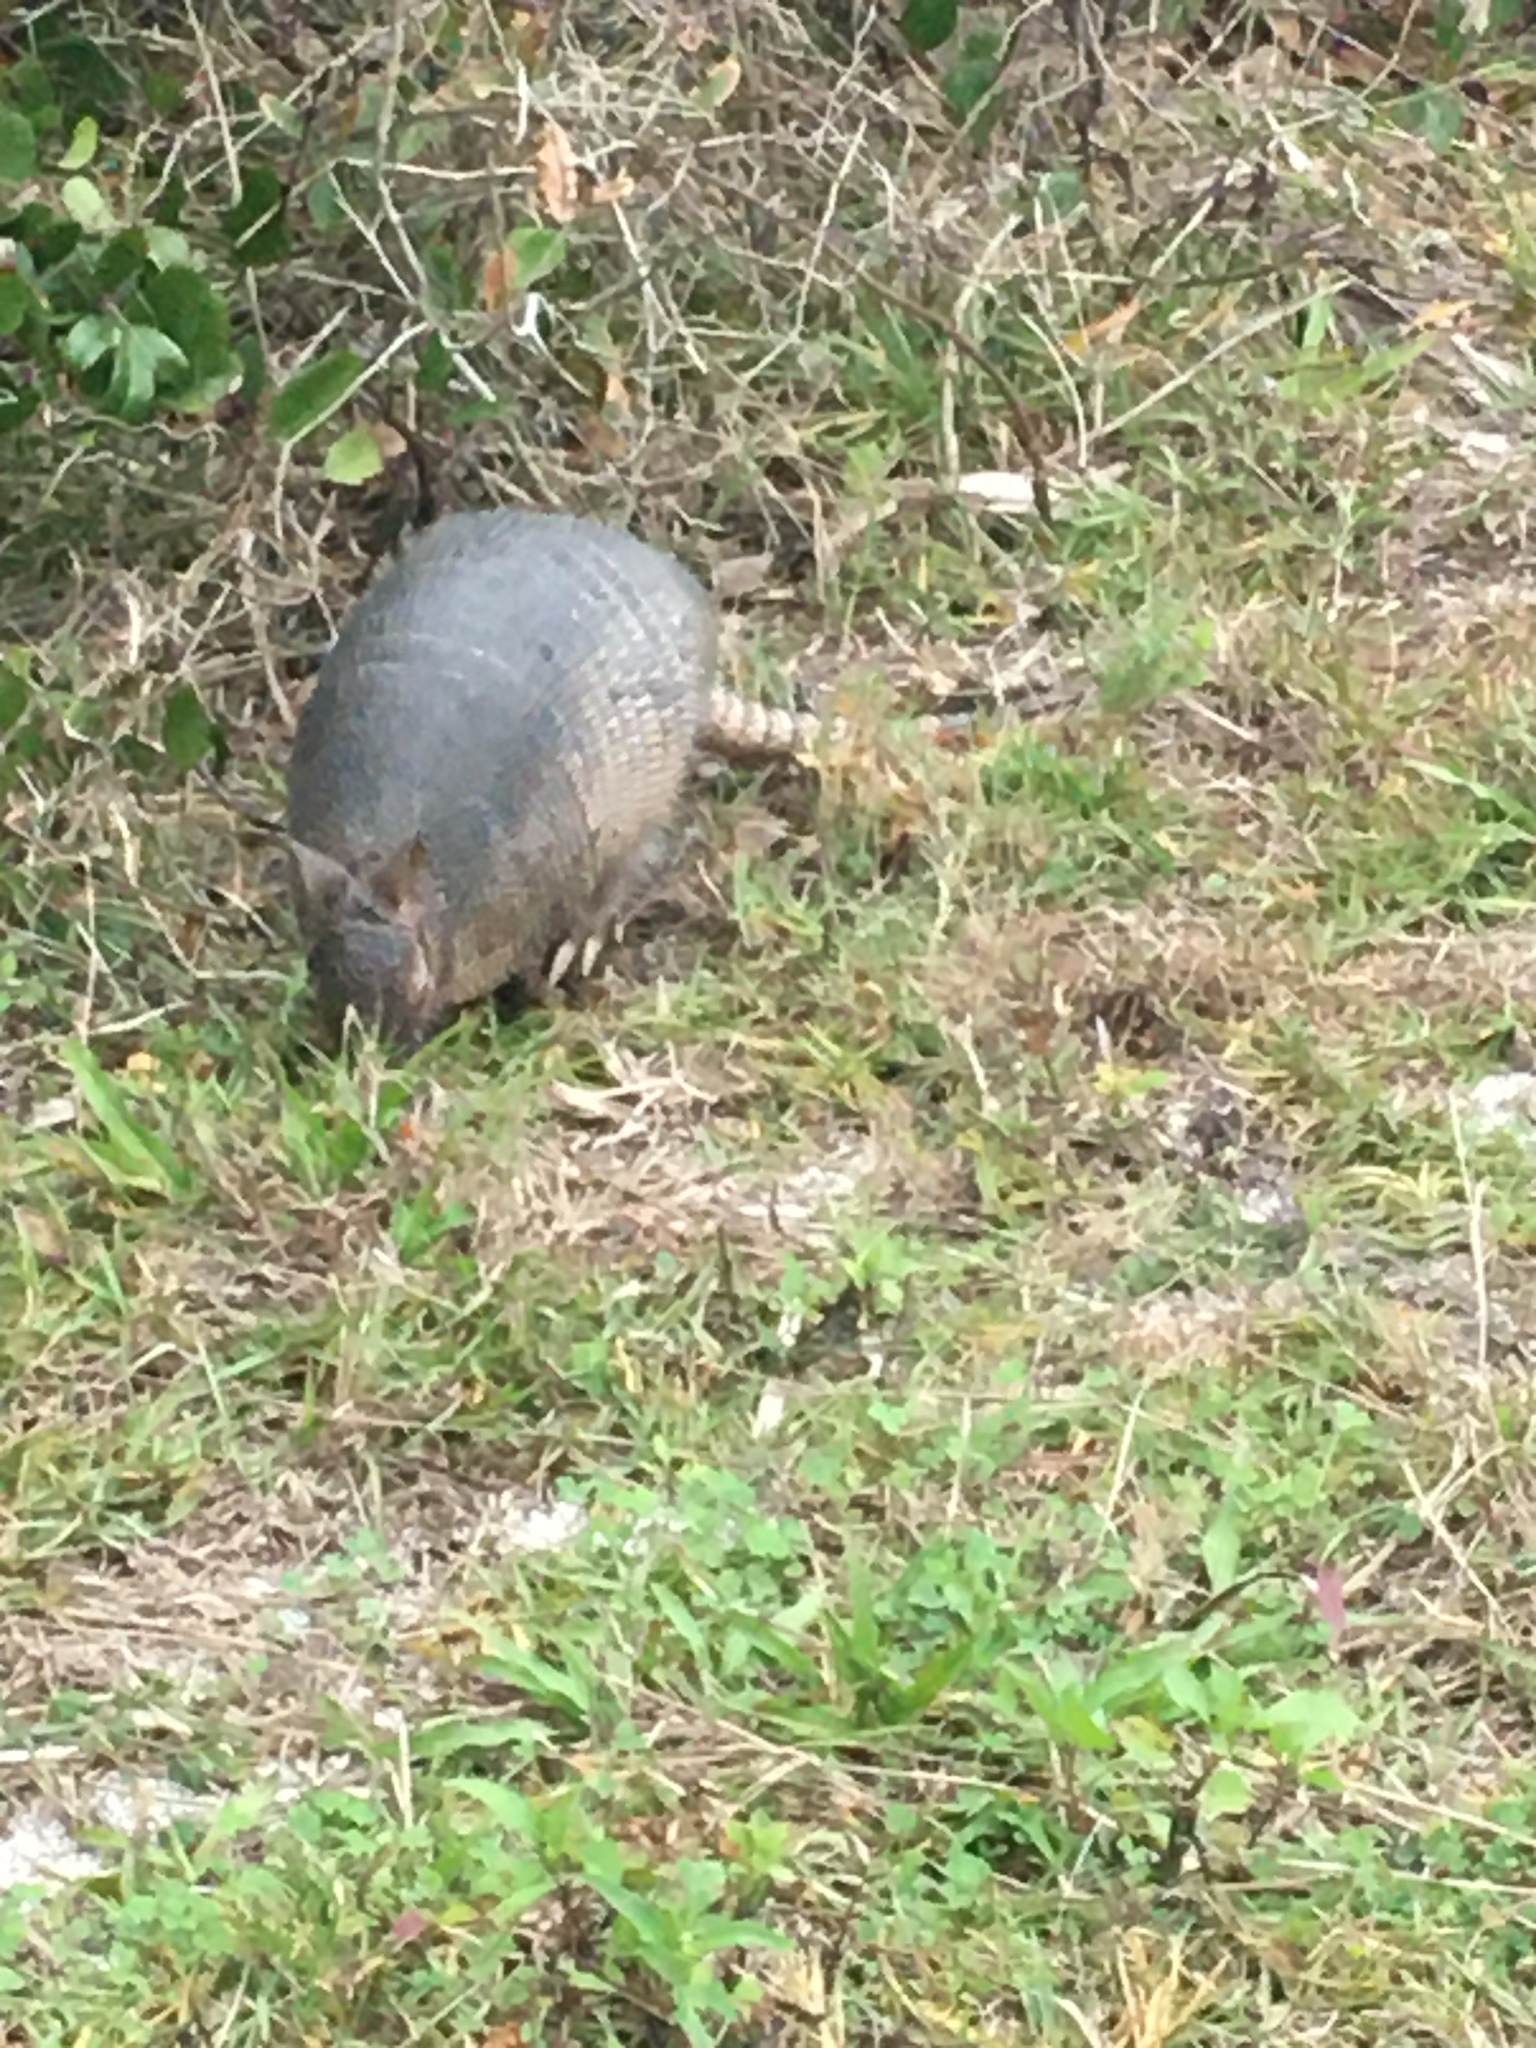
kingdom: Animalia
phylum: Chordata
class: Mammalia
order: Cingulata
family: Dasypodidae
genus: Dasypus
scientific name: Dasypus novemcinctus
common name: Nine-banded armadillo
